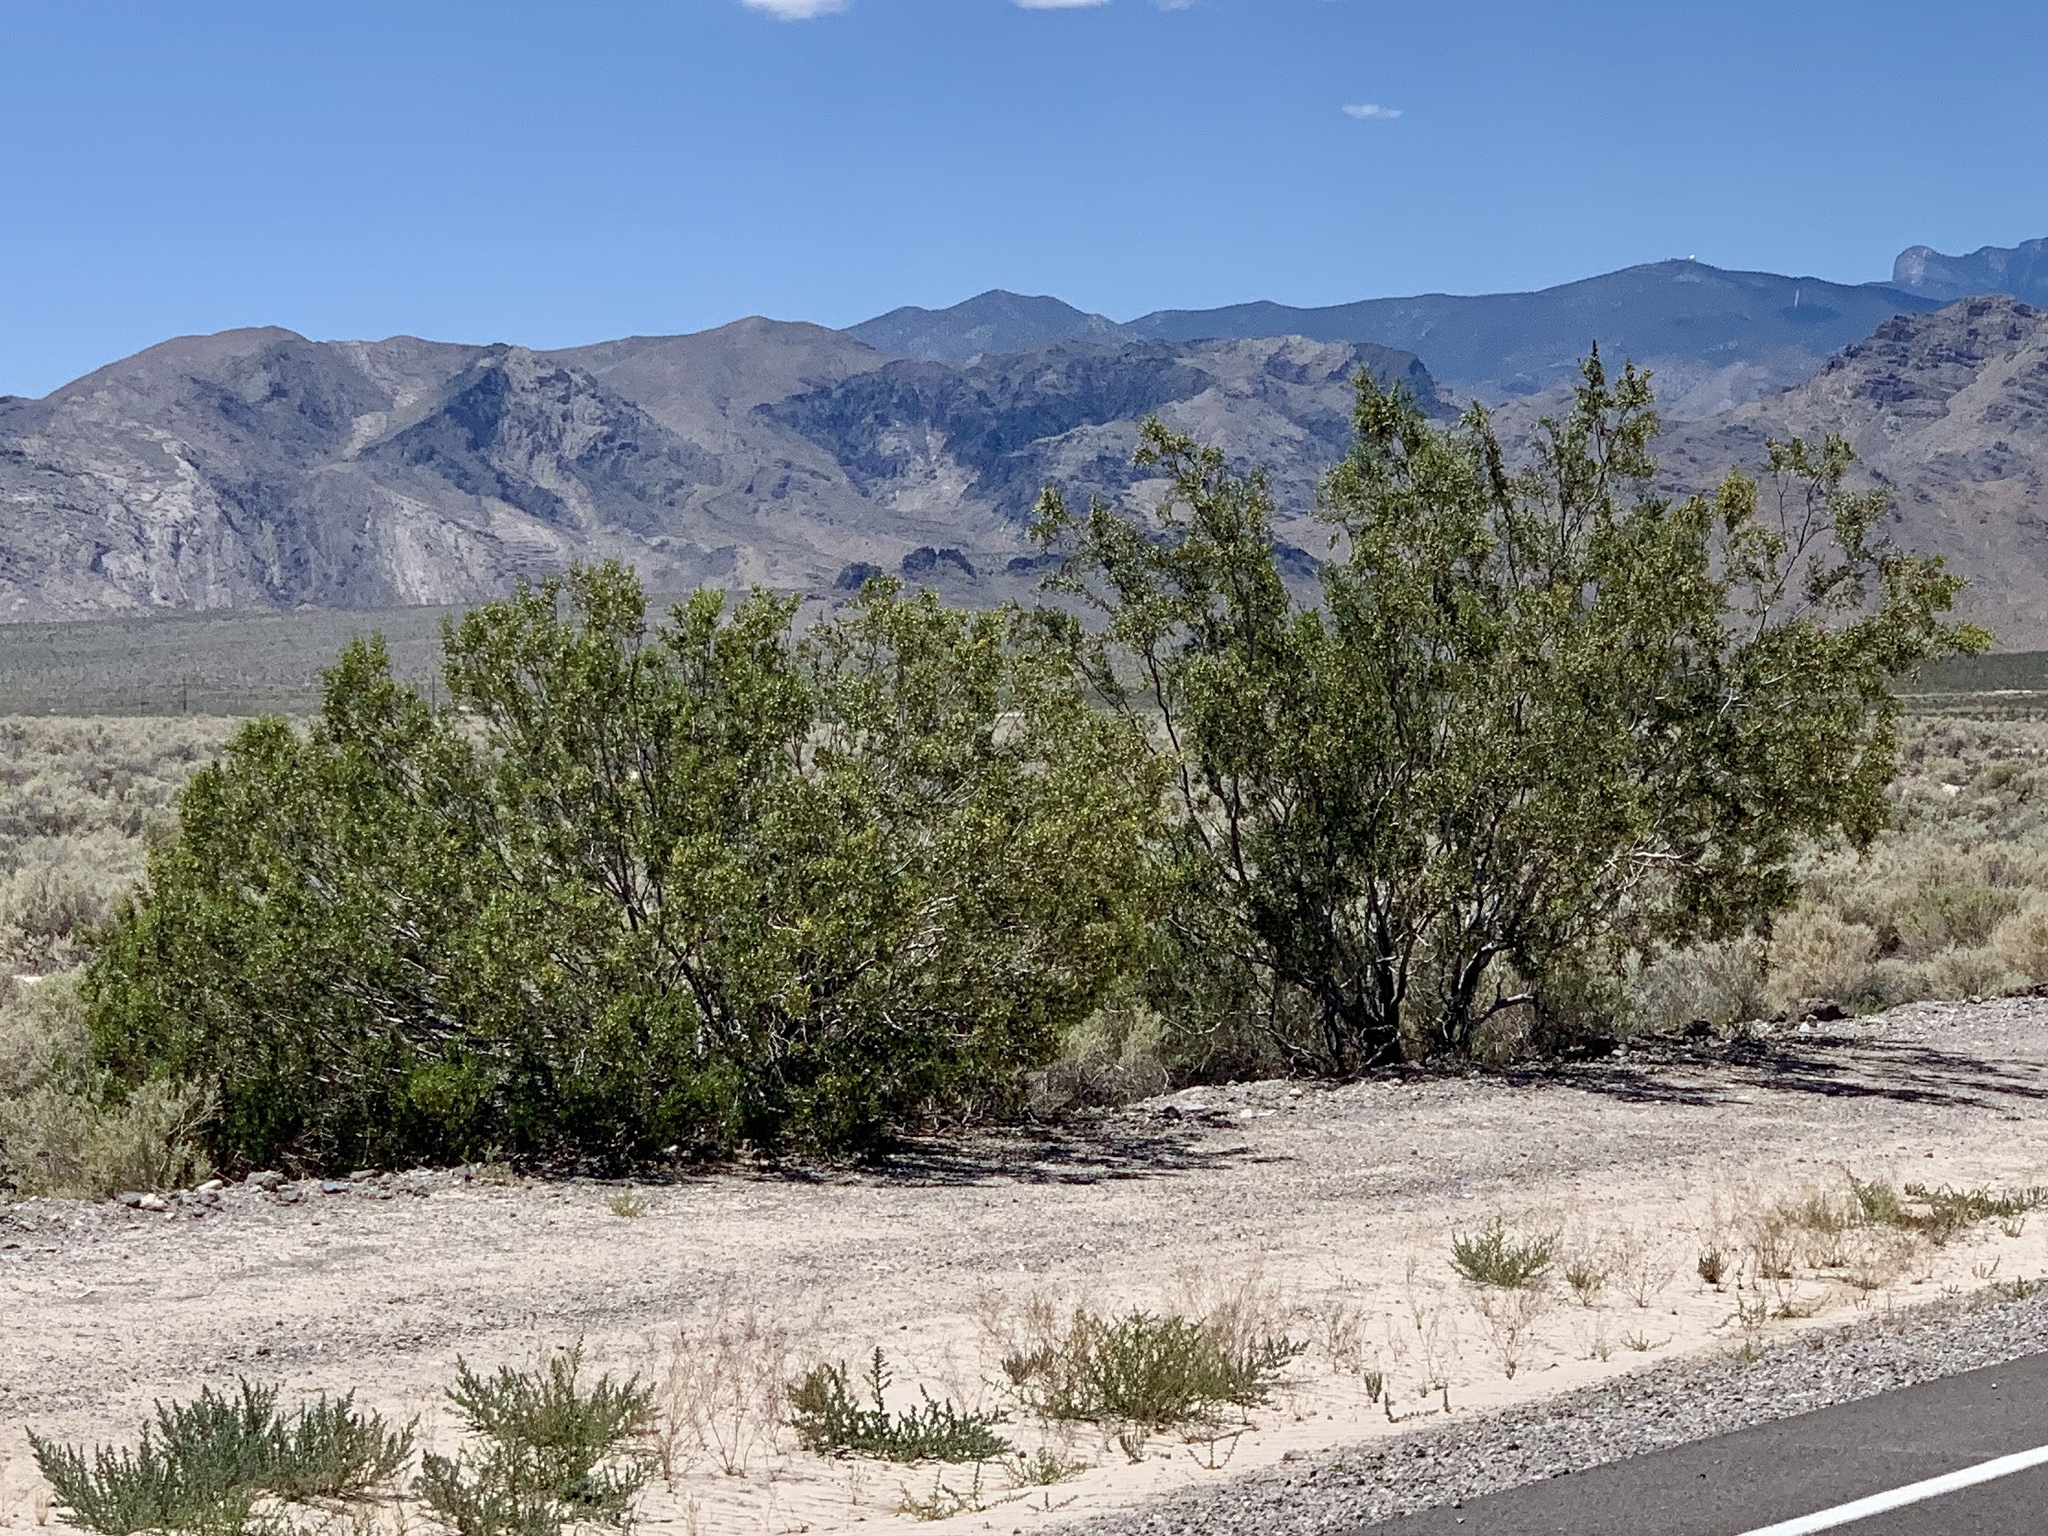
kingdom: Plantae
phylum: Tracheophyta
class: Magnoliopsida
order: Zygophyllales
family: Zygophyllaceae
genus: Larrea
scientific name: Larrea tridentata
